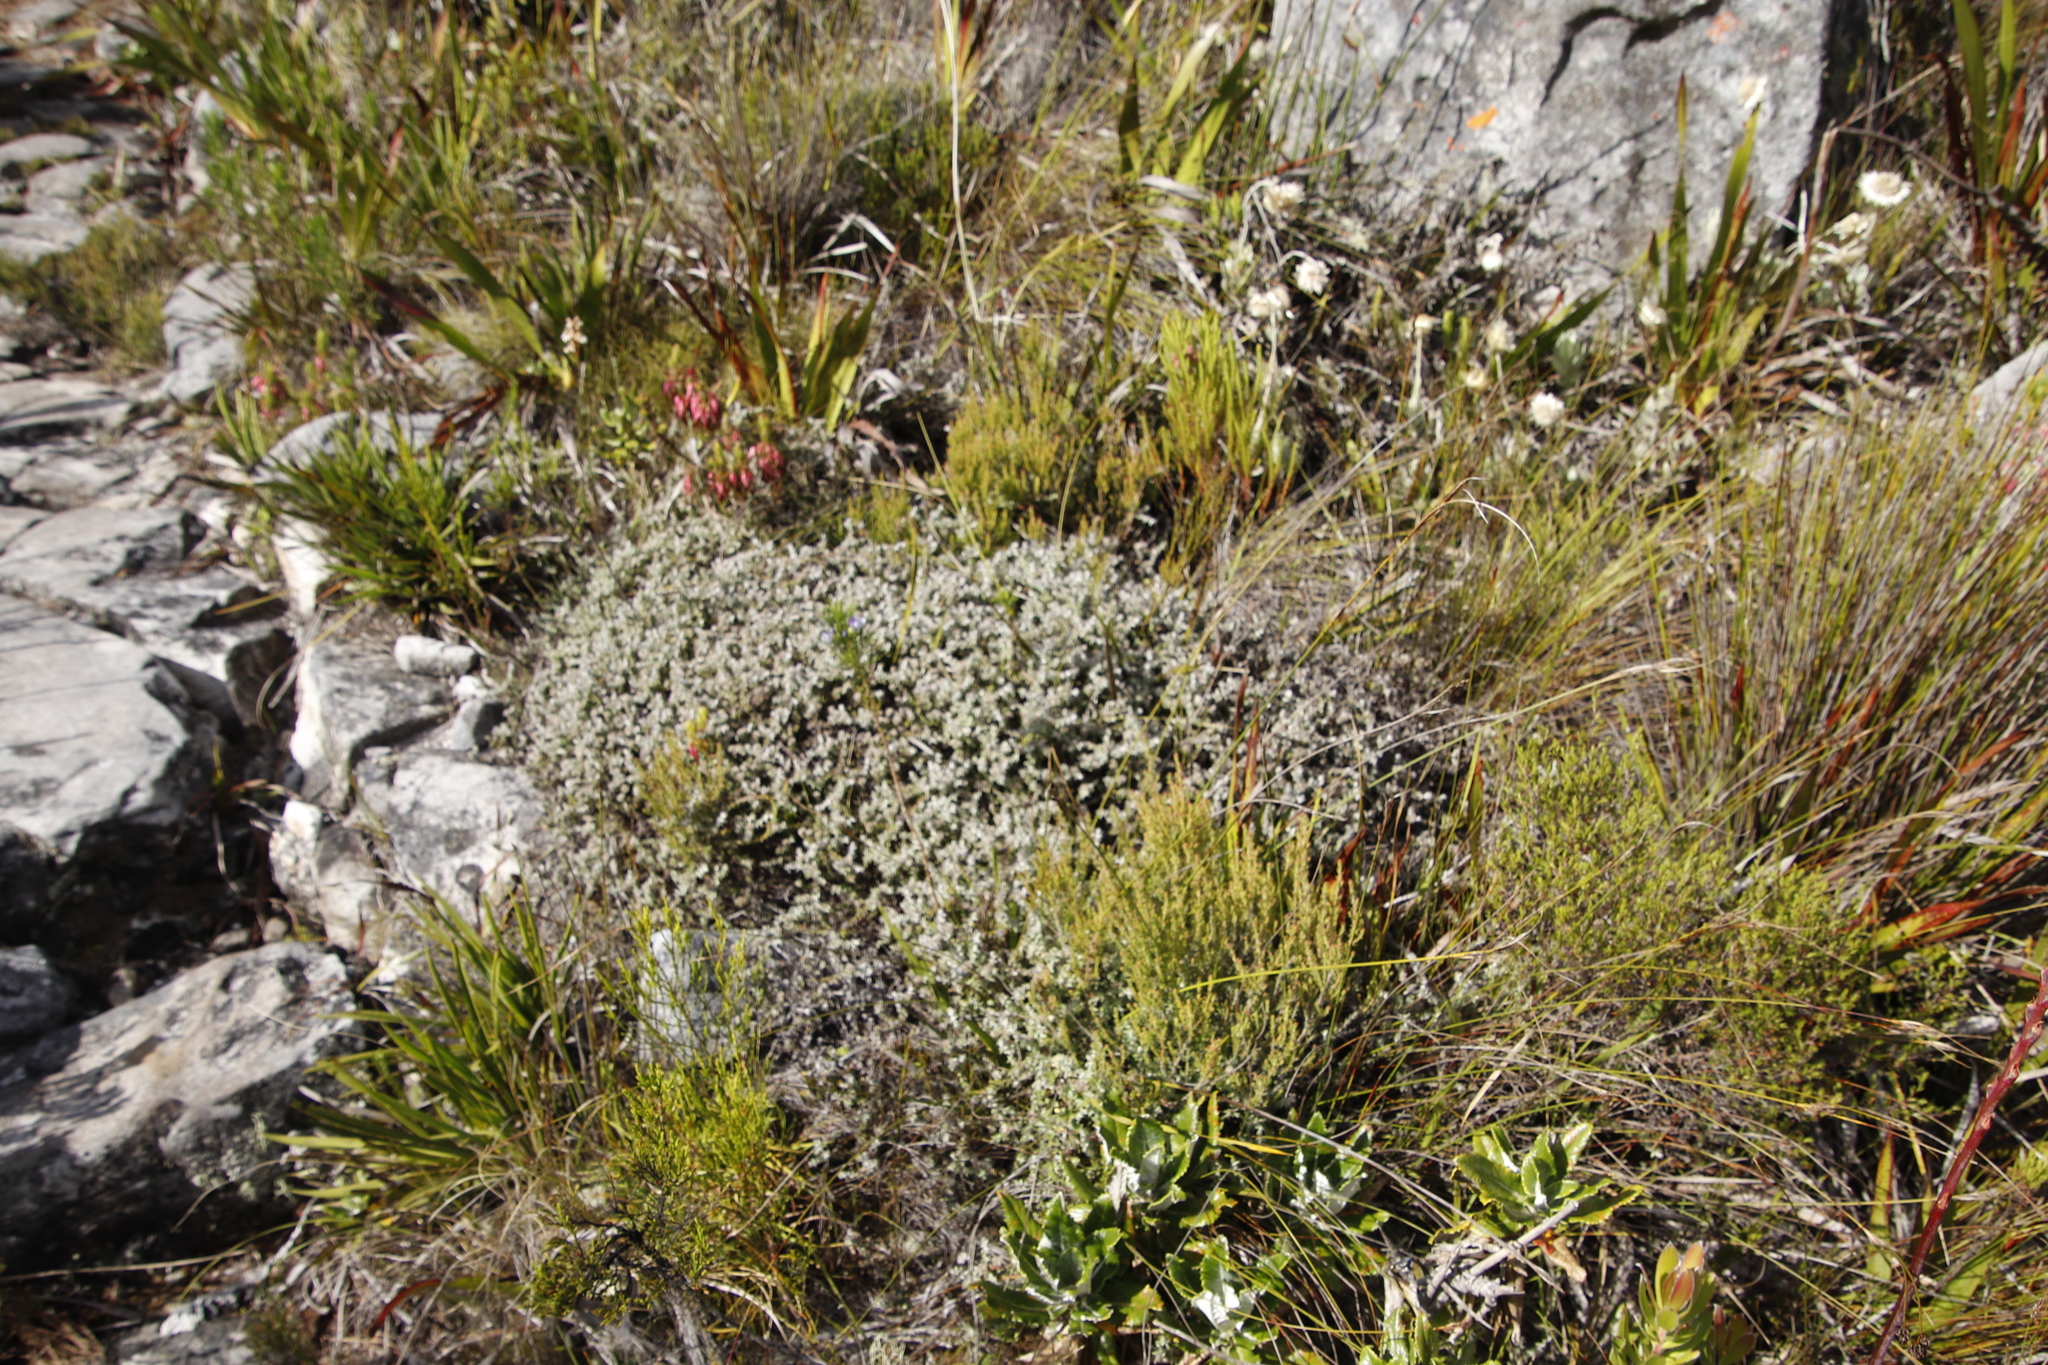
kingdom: Plantae
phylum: Tracheophyta
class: Magnoliopsida
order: Asterales
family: Asteraceae
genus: Metalasia
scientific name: Metalasia divergens
